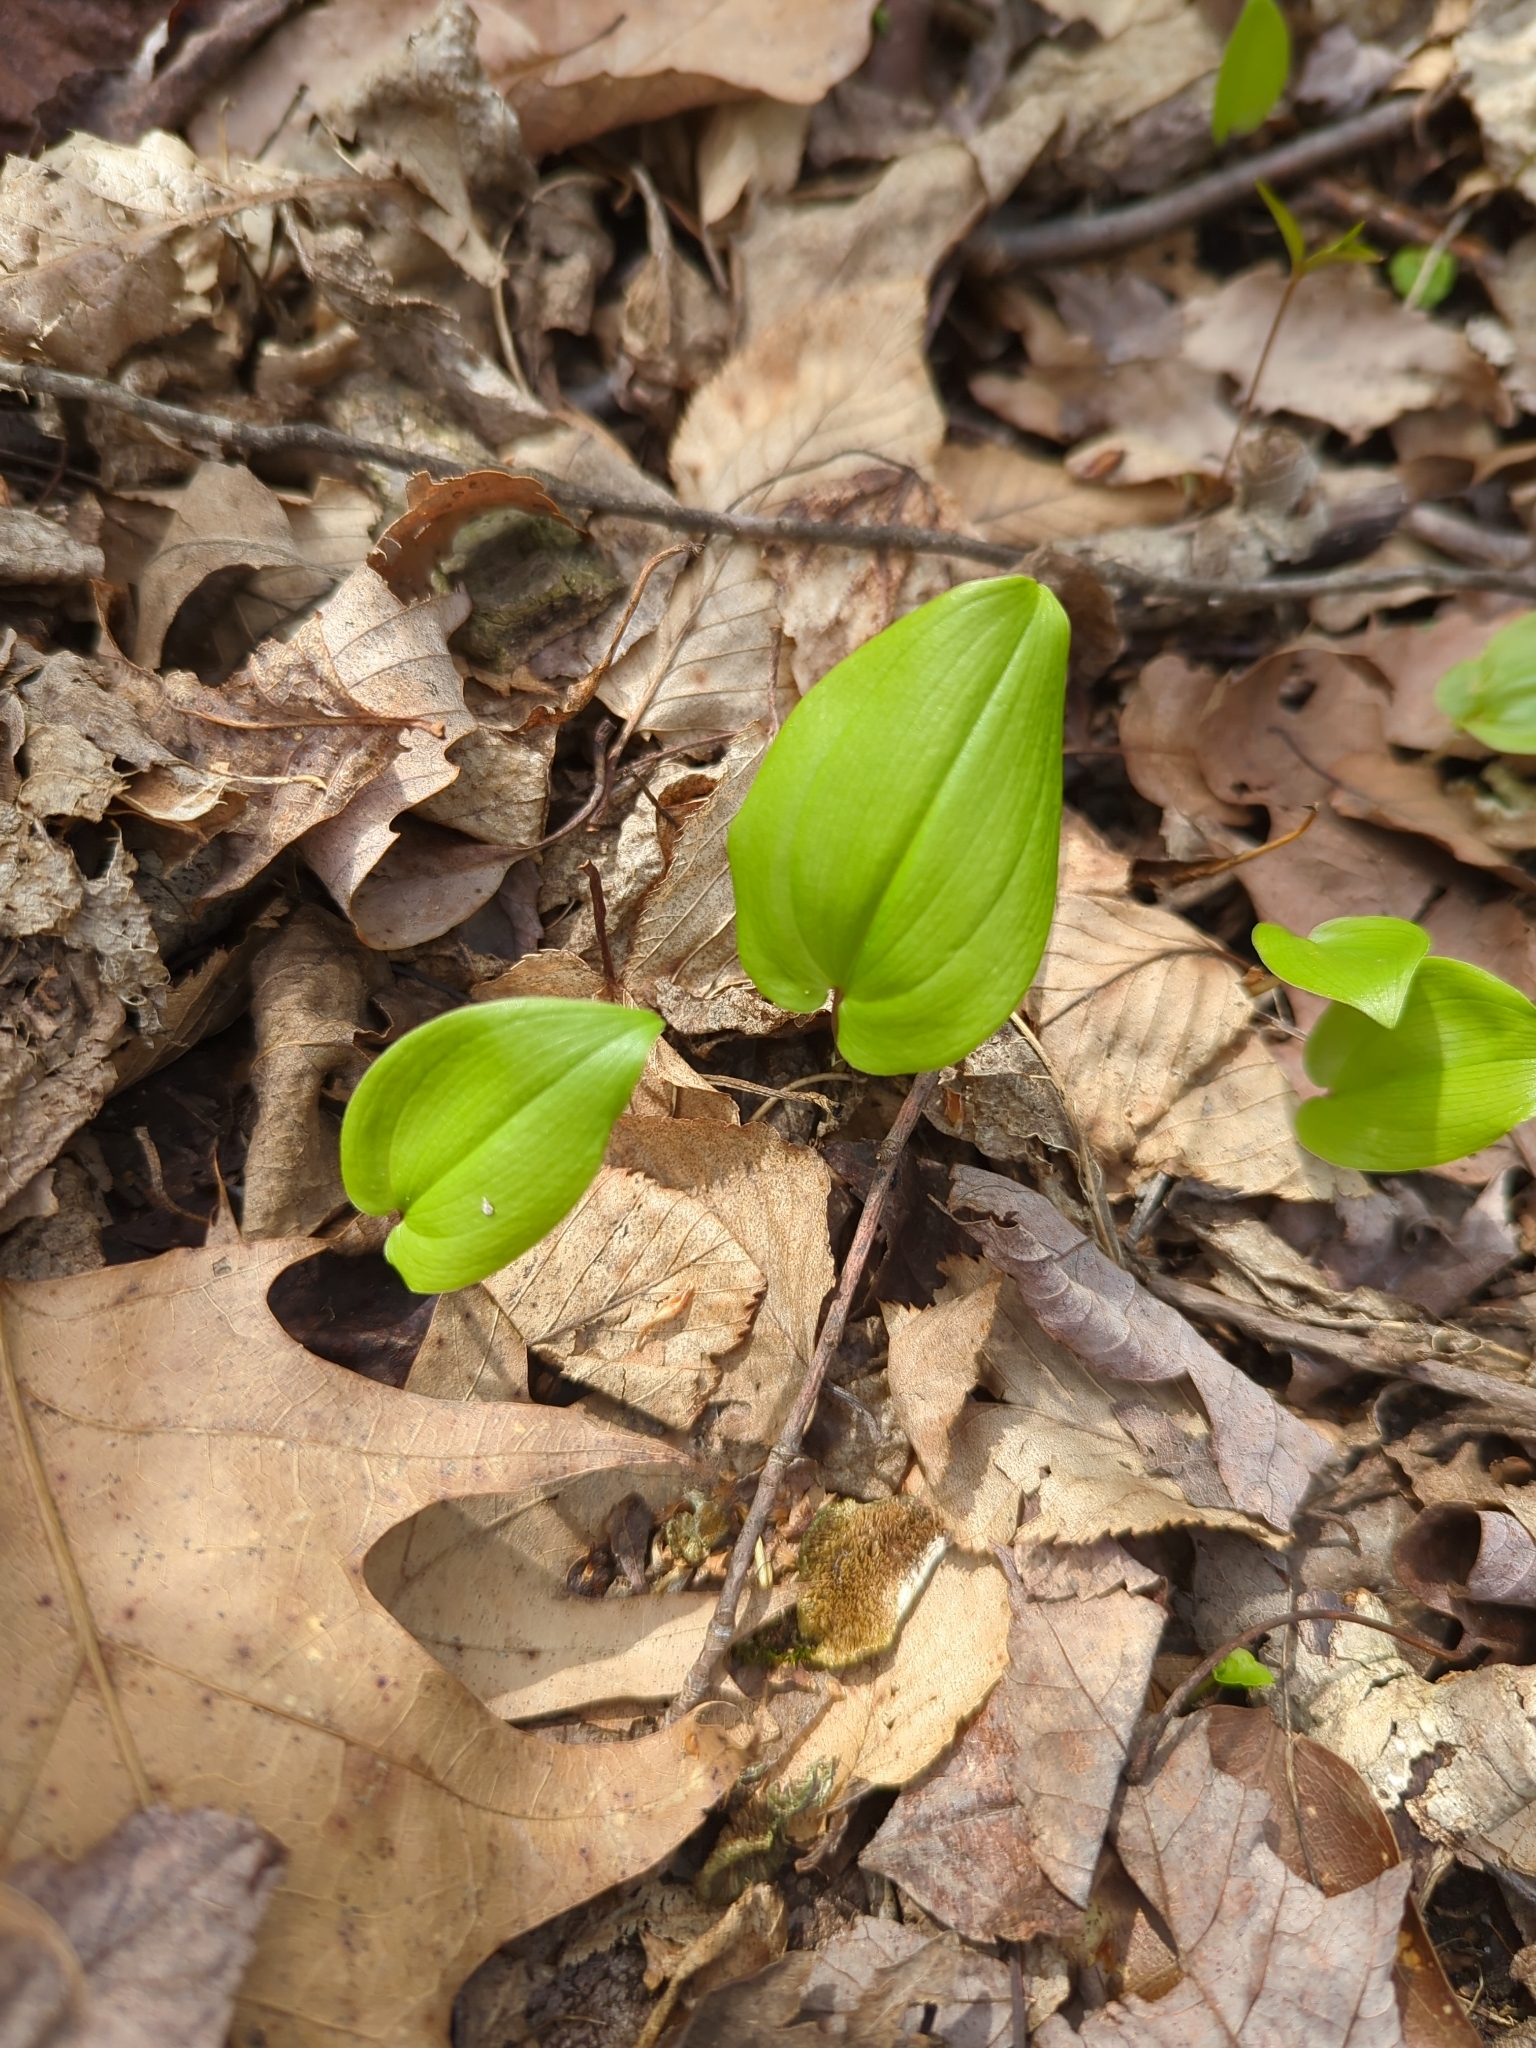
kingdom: Plantae
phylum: Tracheophyta
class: Liliopsida
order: Asparagales
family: Asparagaceae
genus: Maianthemum
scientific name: Maianthemum canadense
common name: False lily-of-the-valley
